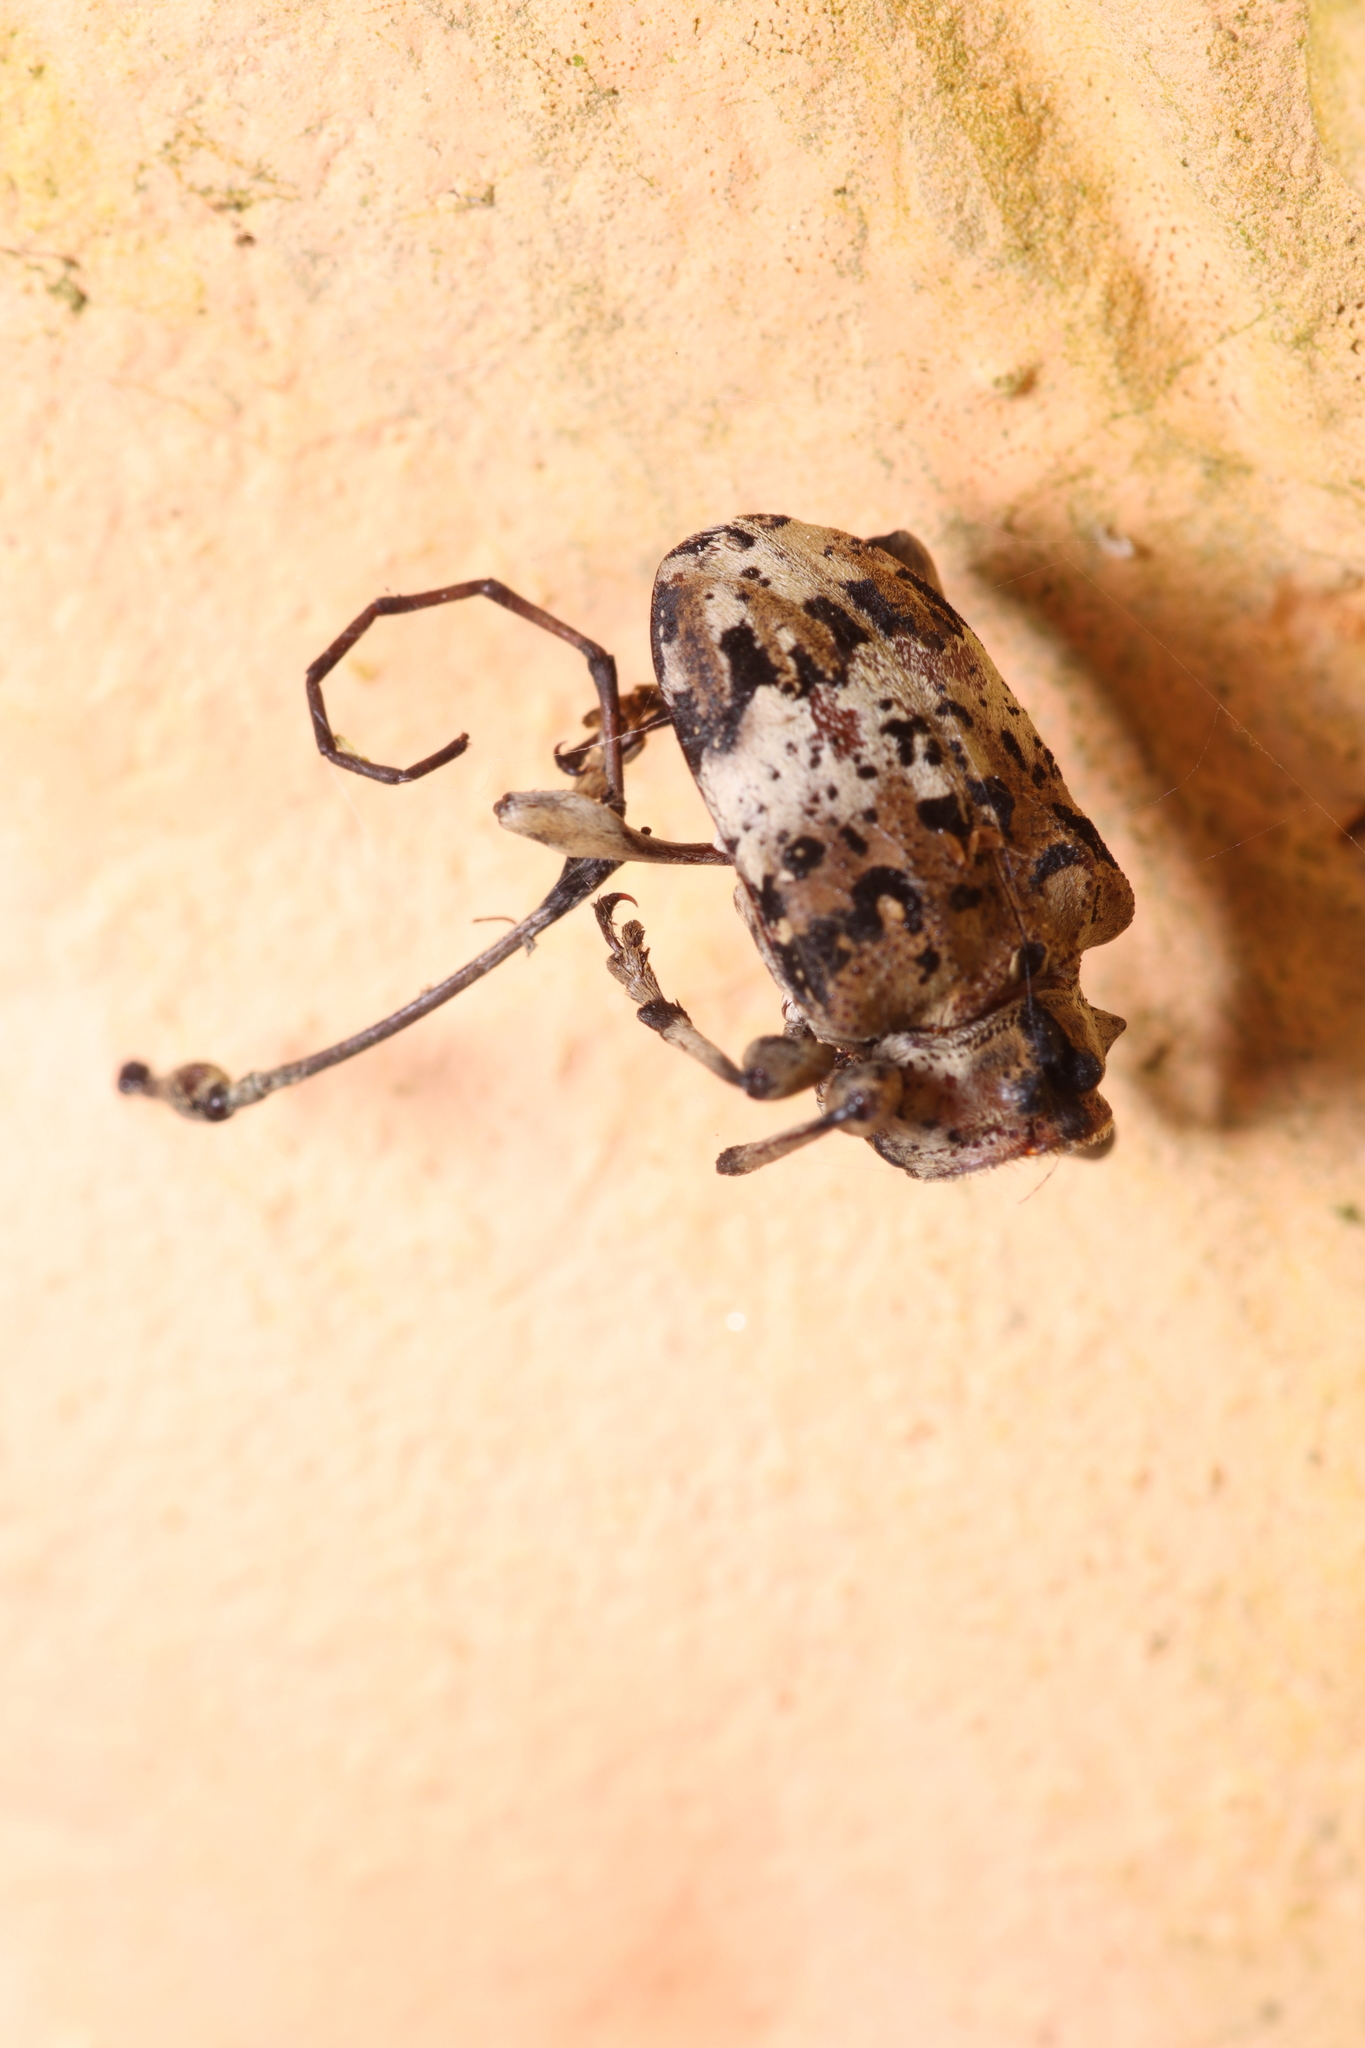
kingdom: Animalia
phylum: Arthropoda
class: Insecta
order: Coleoptera
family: Cerambycidae
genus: Anisocerus
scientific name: Anisocerus scopifer
